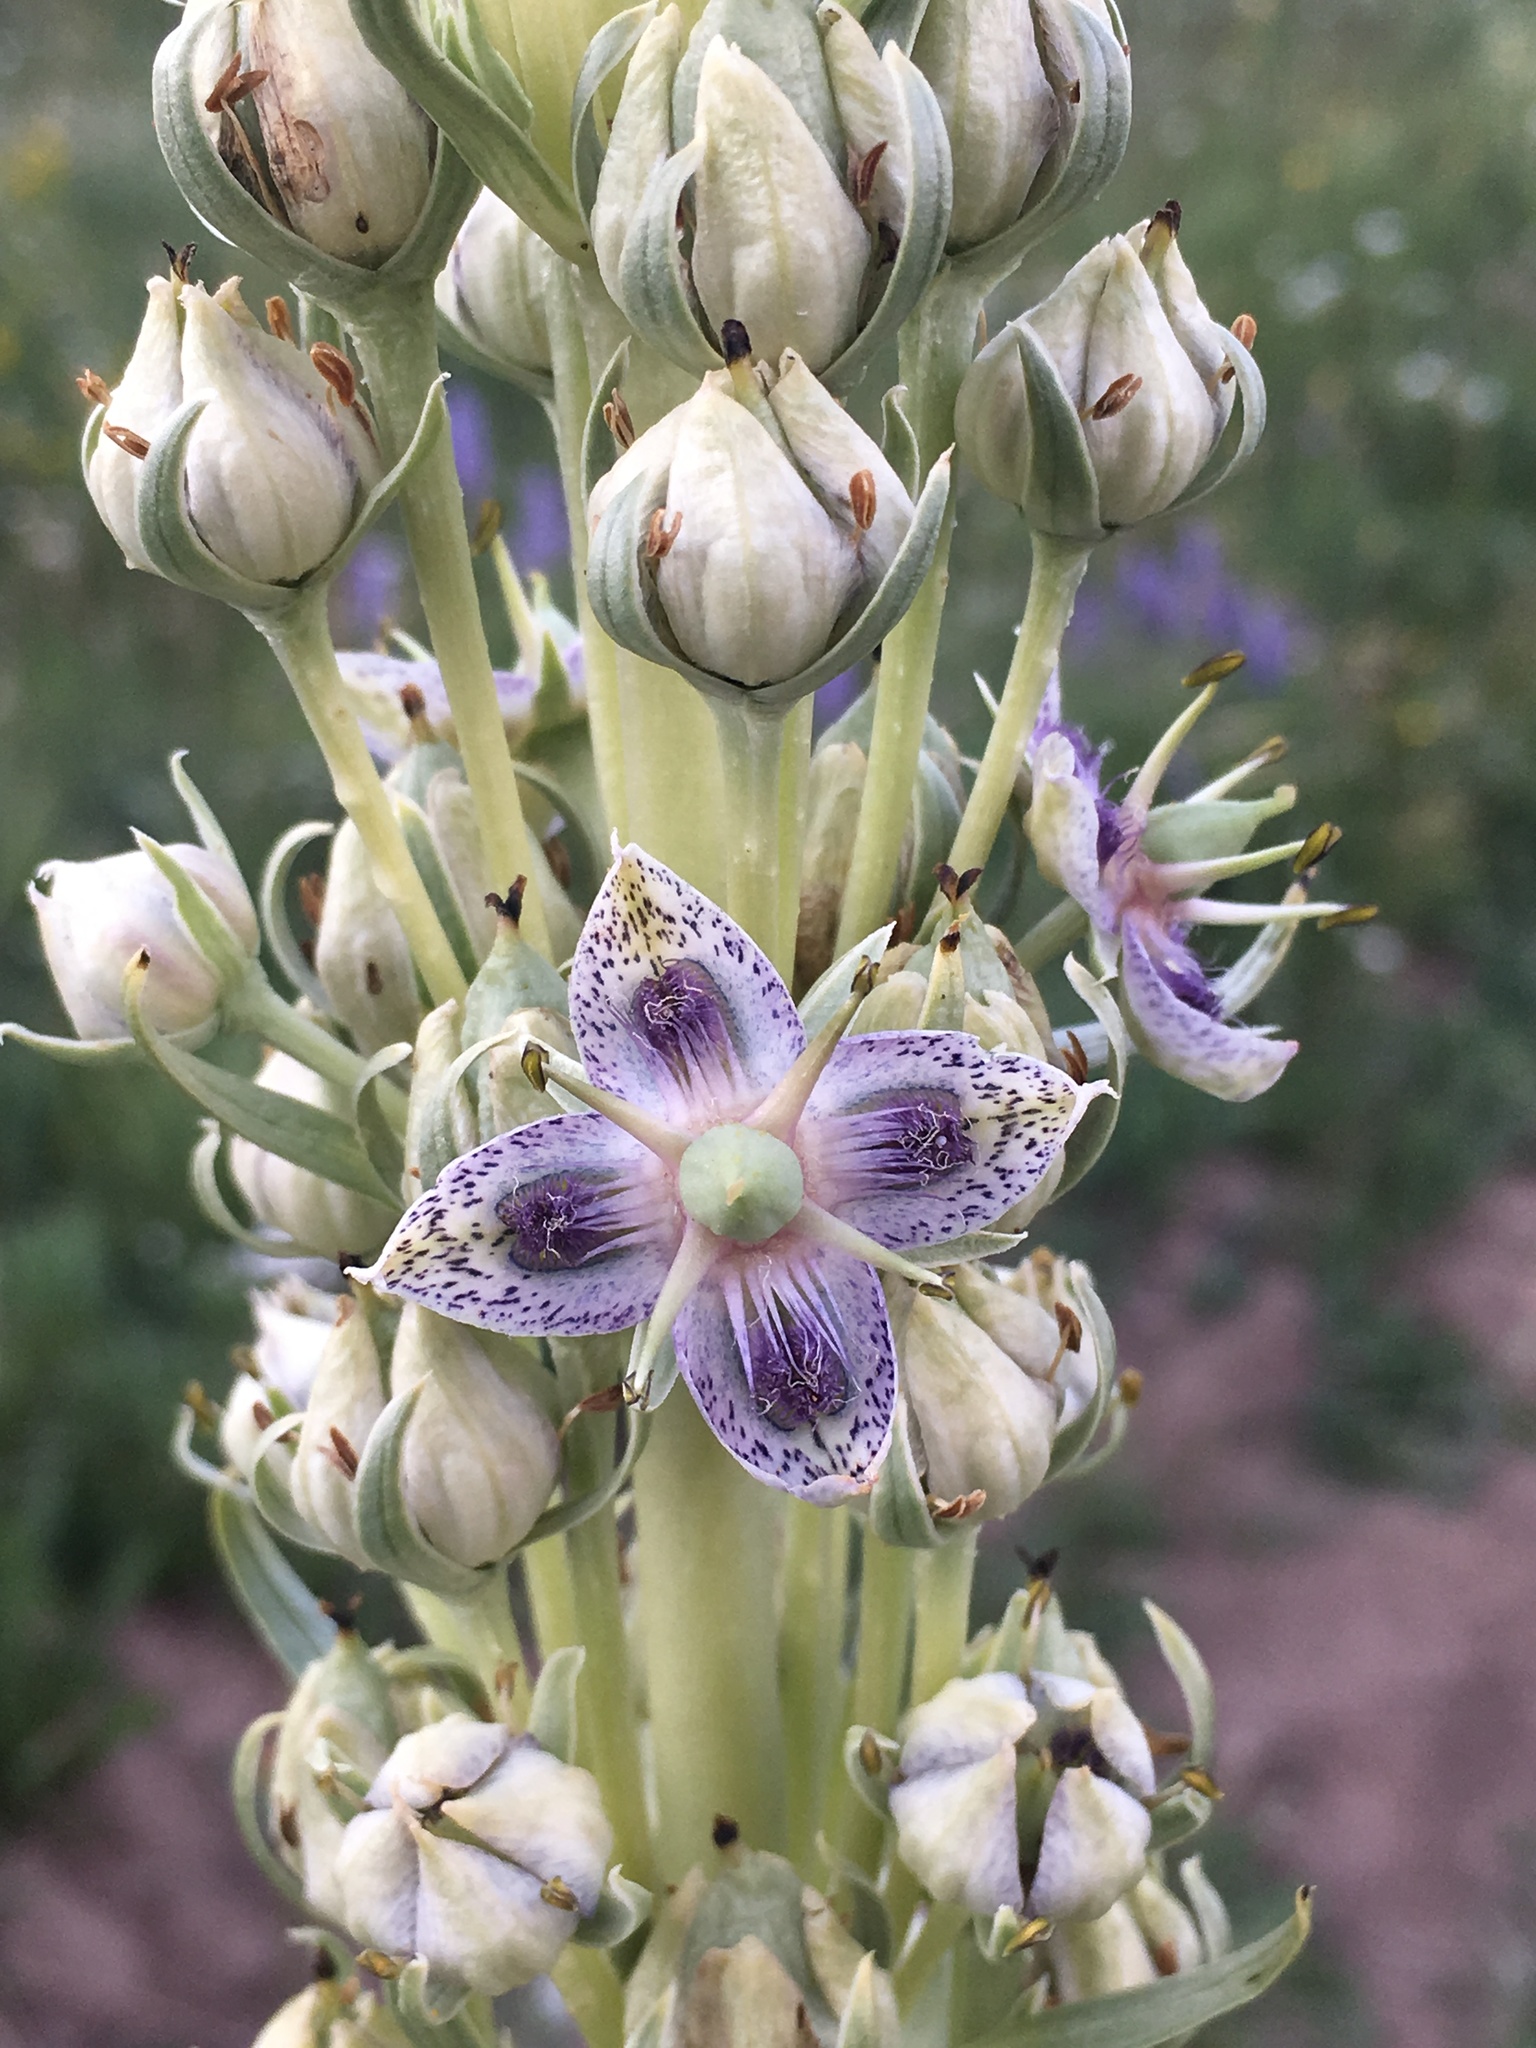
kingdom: Plantae
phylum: Tracheophyta
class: Magnoliopsida
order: Gentianales
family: Gentianaceae
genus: Frasera
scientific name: Frasera speciosa
